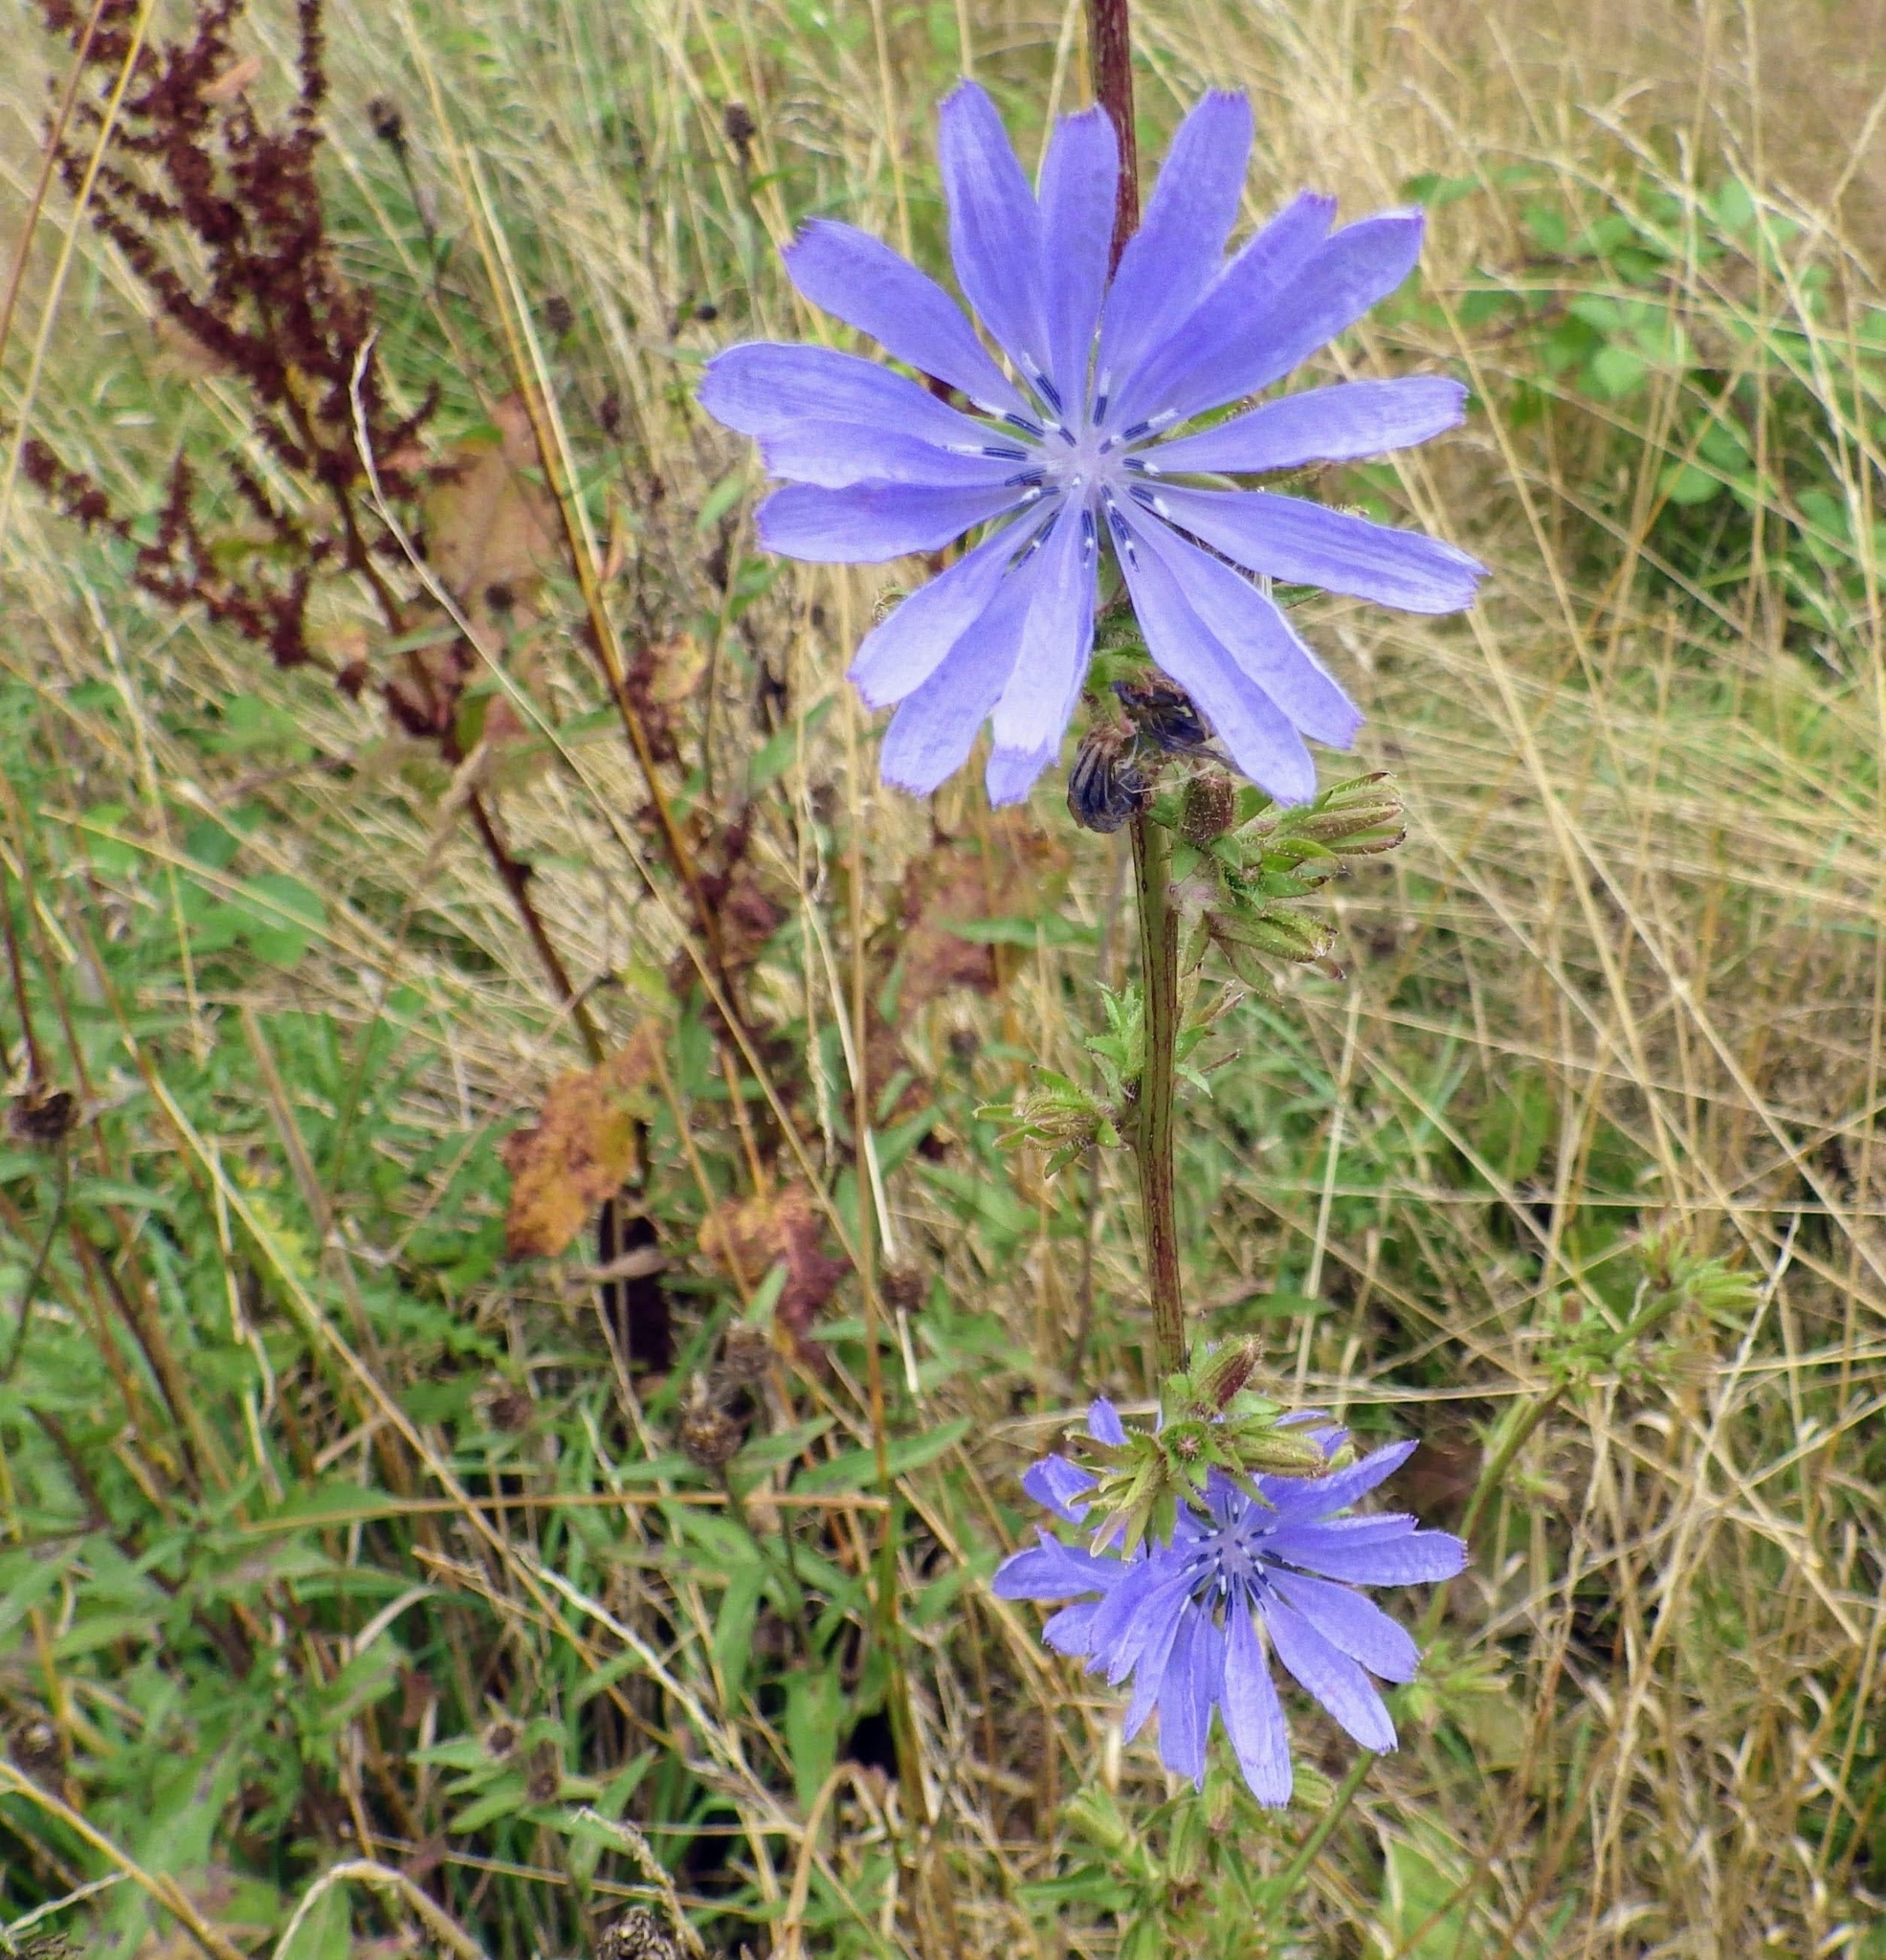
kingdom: Plantae
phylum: Tracheophyta
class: Magnoliopsida
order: Asterales
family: Asteraceae
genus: Cichorium
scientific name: Cichorium intybus
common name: Chicory
